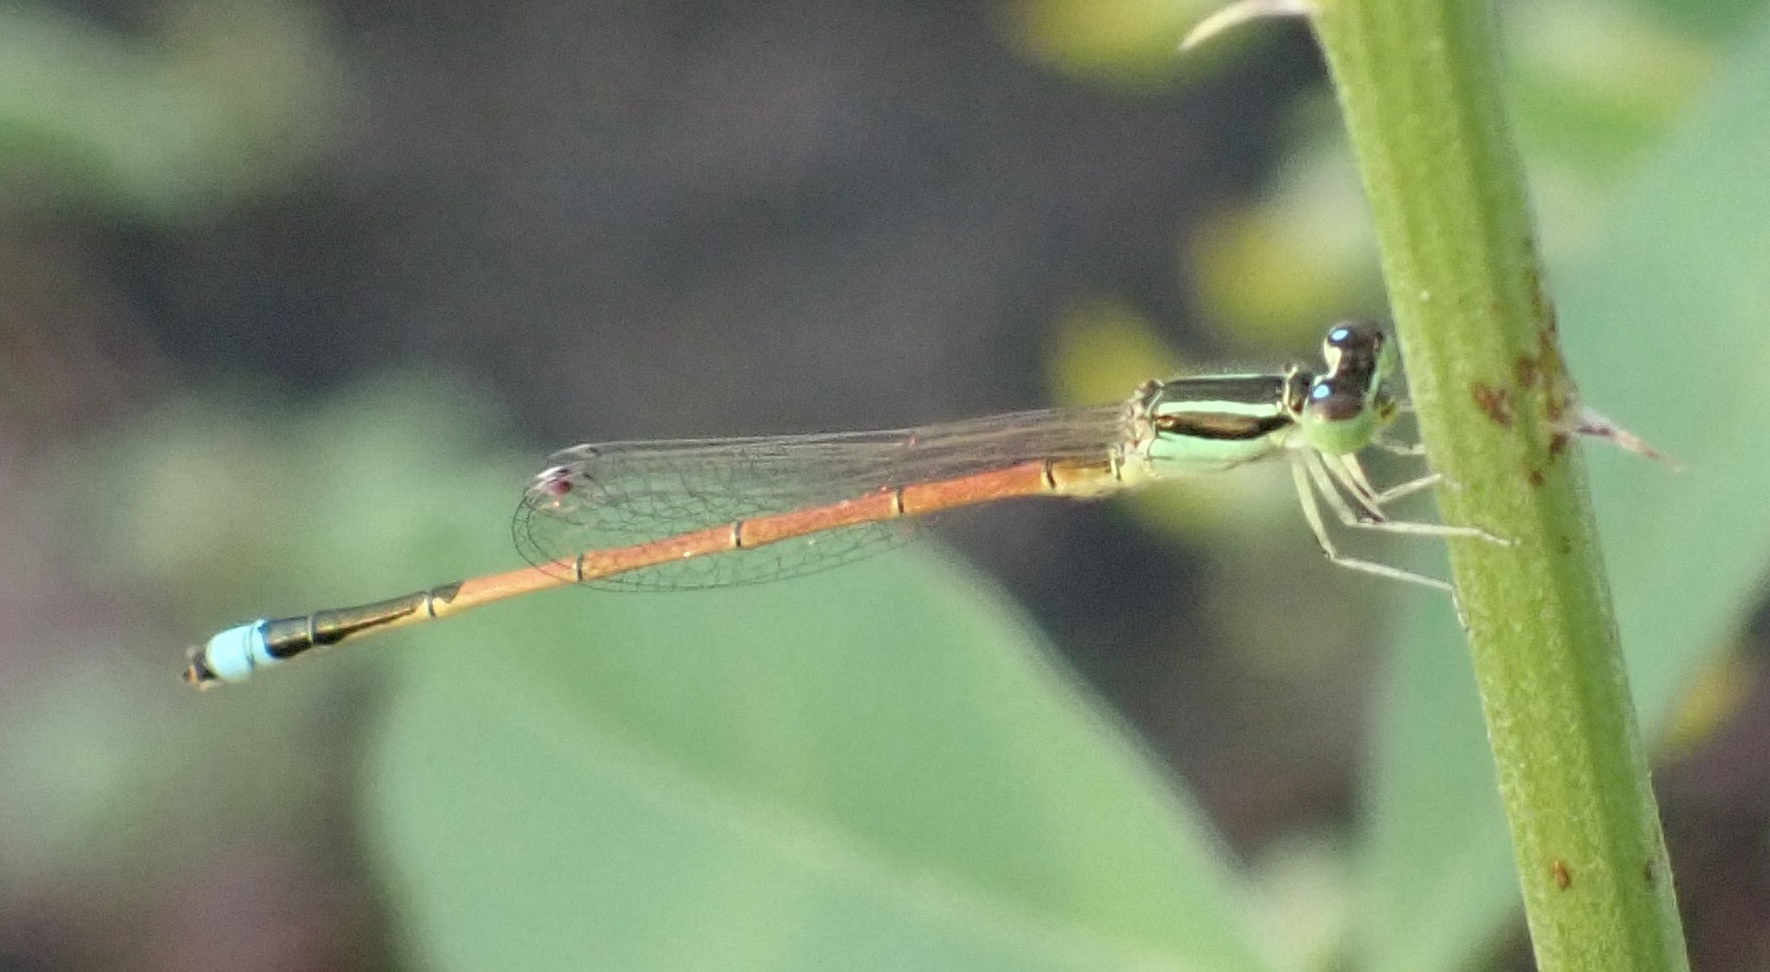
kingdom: Animalia
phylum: Arthropoda
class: Insecta
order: Odonata
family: Coenagrionidae
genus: Ischnura
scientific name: Ischnura aurora
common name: Gossamer damselfly
